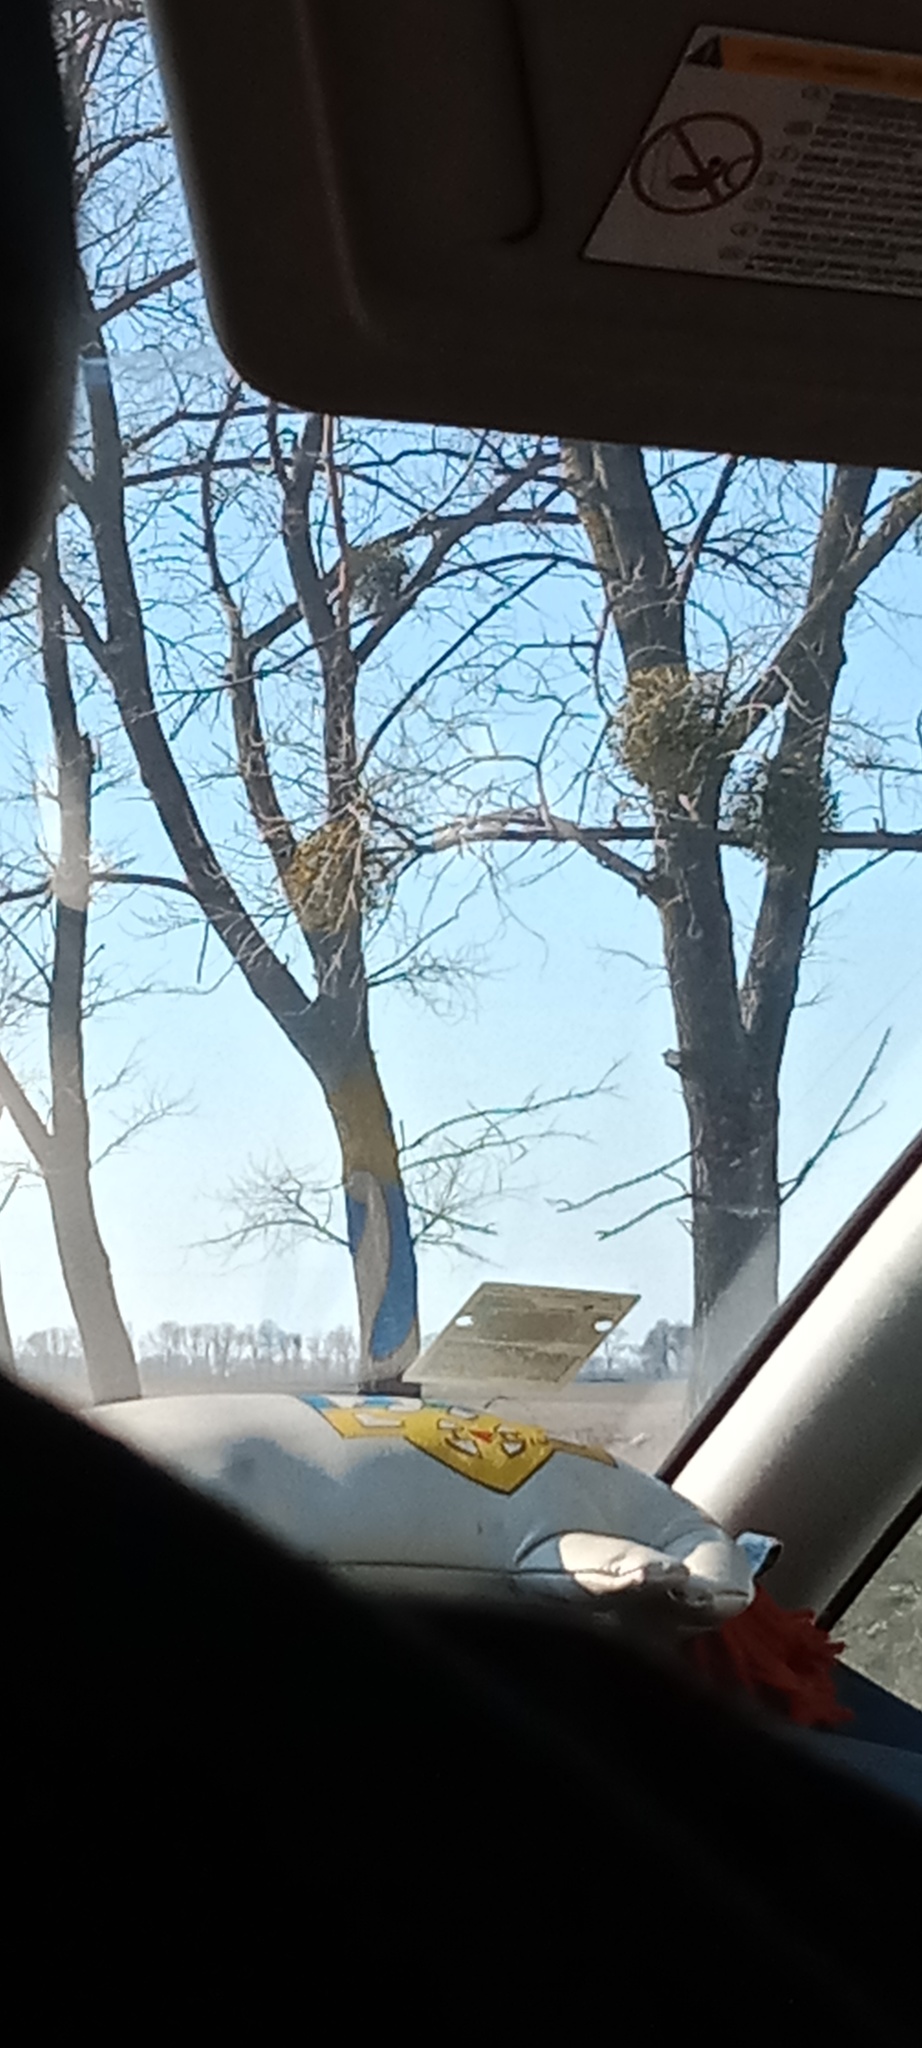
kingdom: Plantae
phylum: Tracheophyta
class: Magnoliopsida
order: Santalales
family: Viscaceae
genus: Viscum
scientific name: Viscum album
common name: Mistletoe
